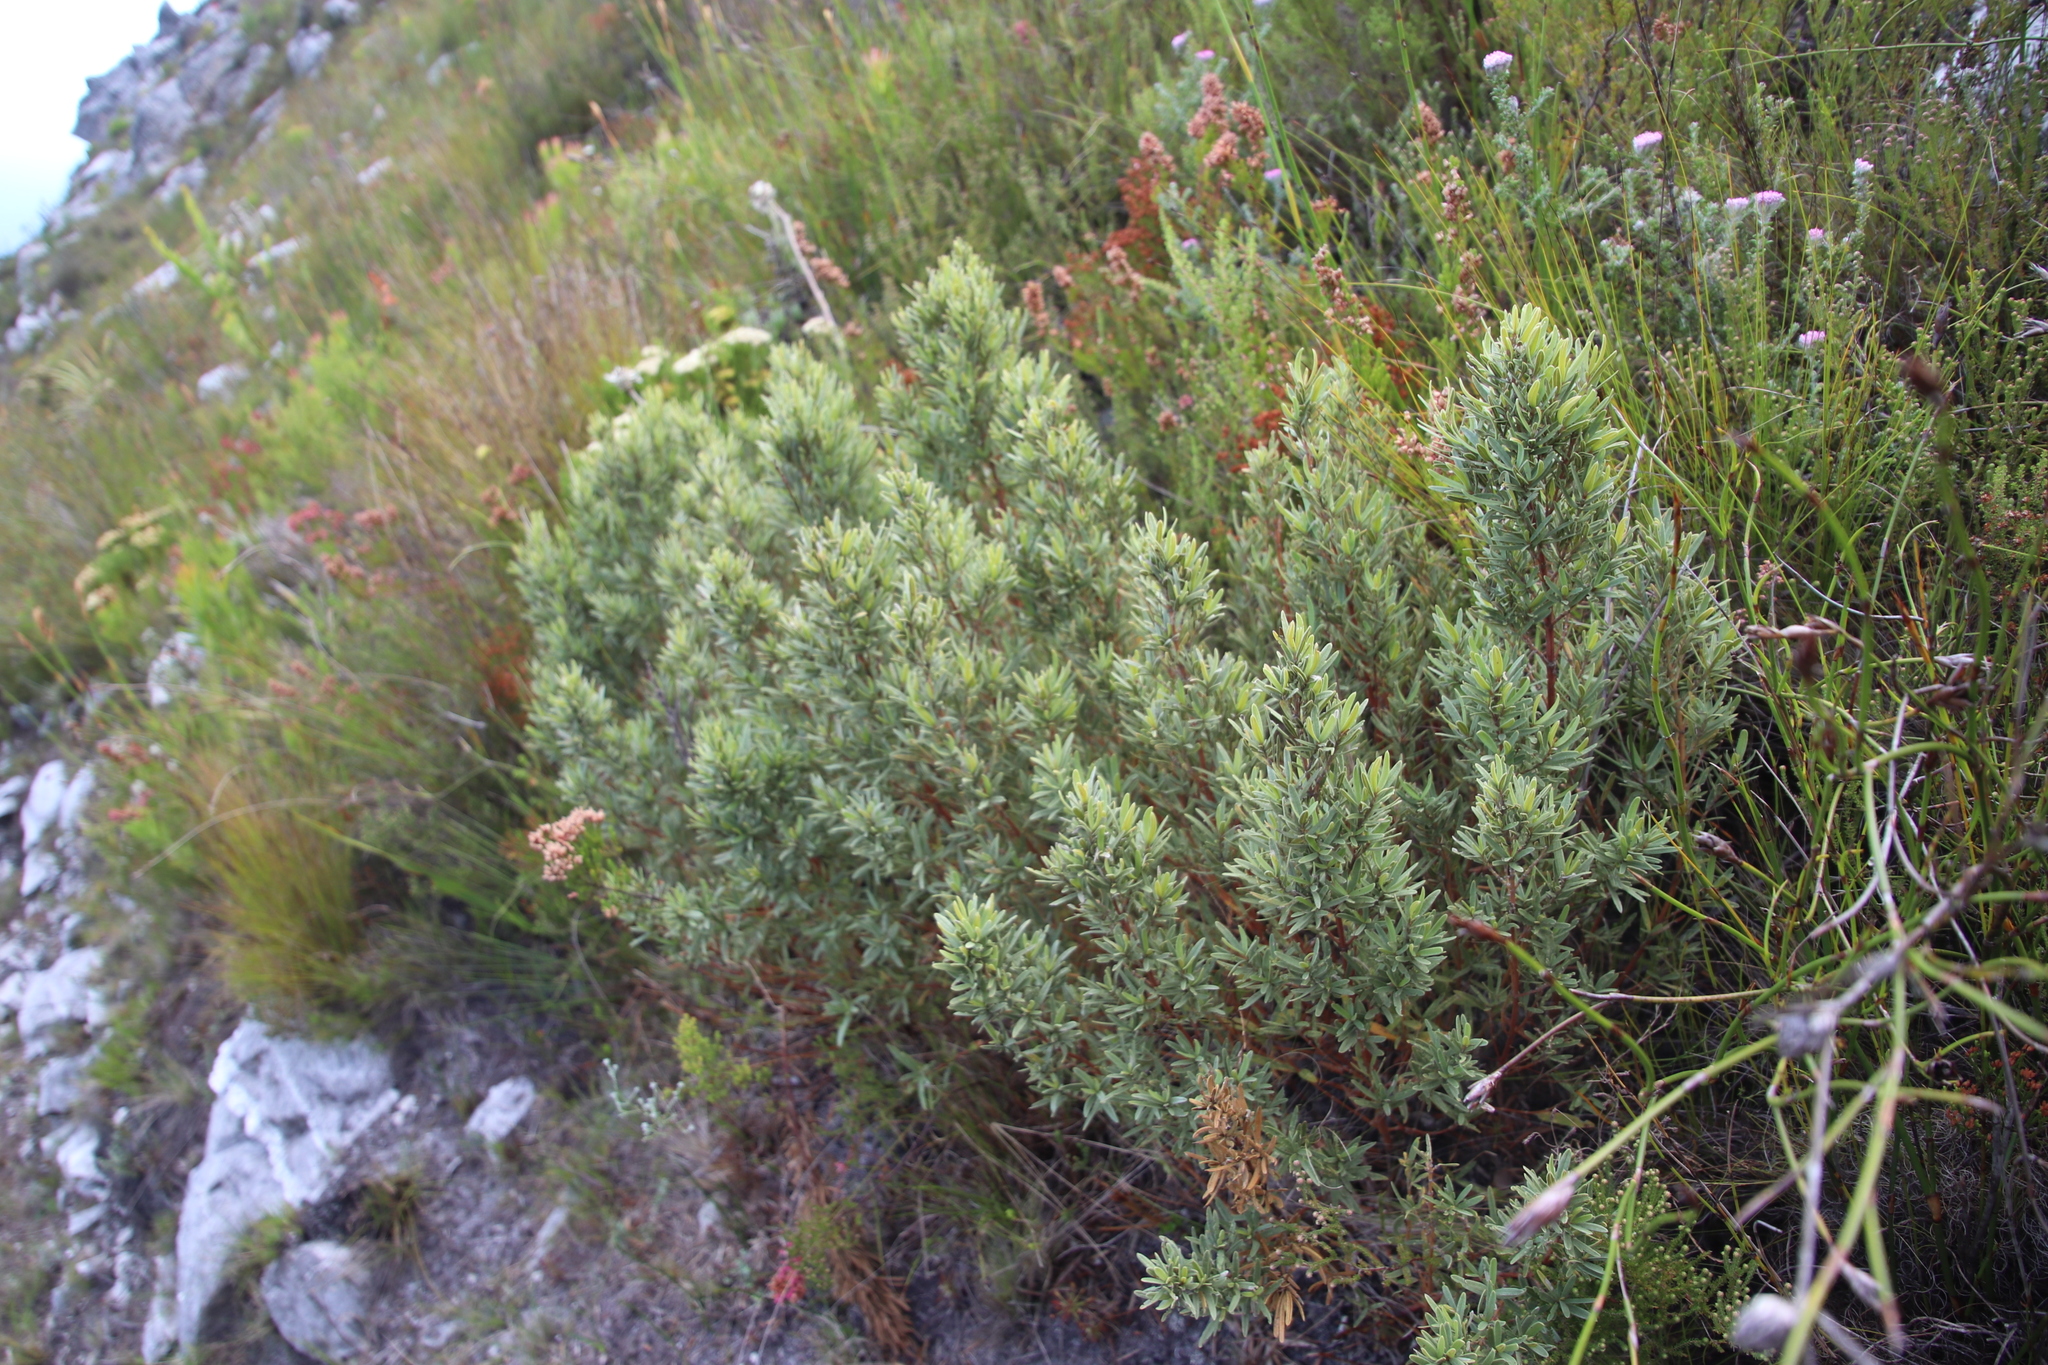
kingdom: Plantae
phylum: Tracheophyta
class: Magnoliopsida
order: Cornales
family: Grubbiaceae
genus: Grubbia
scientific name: Grubbia tomentosa
